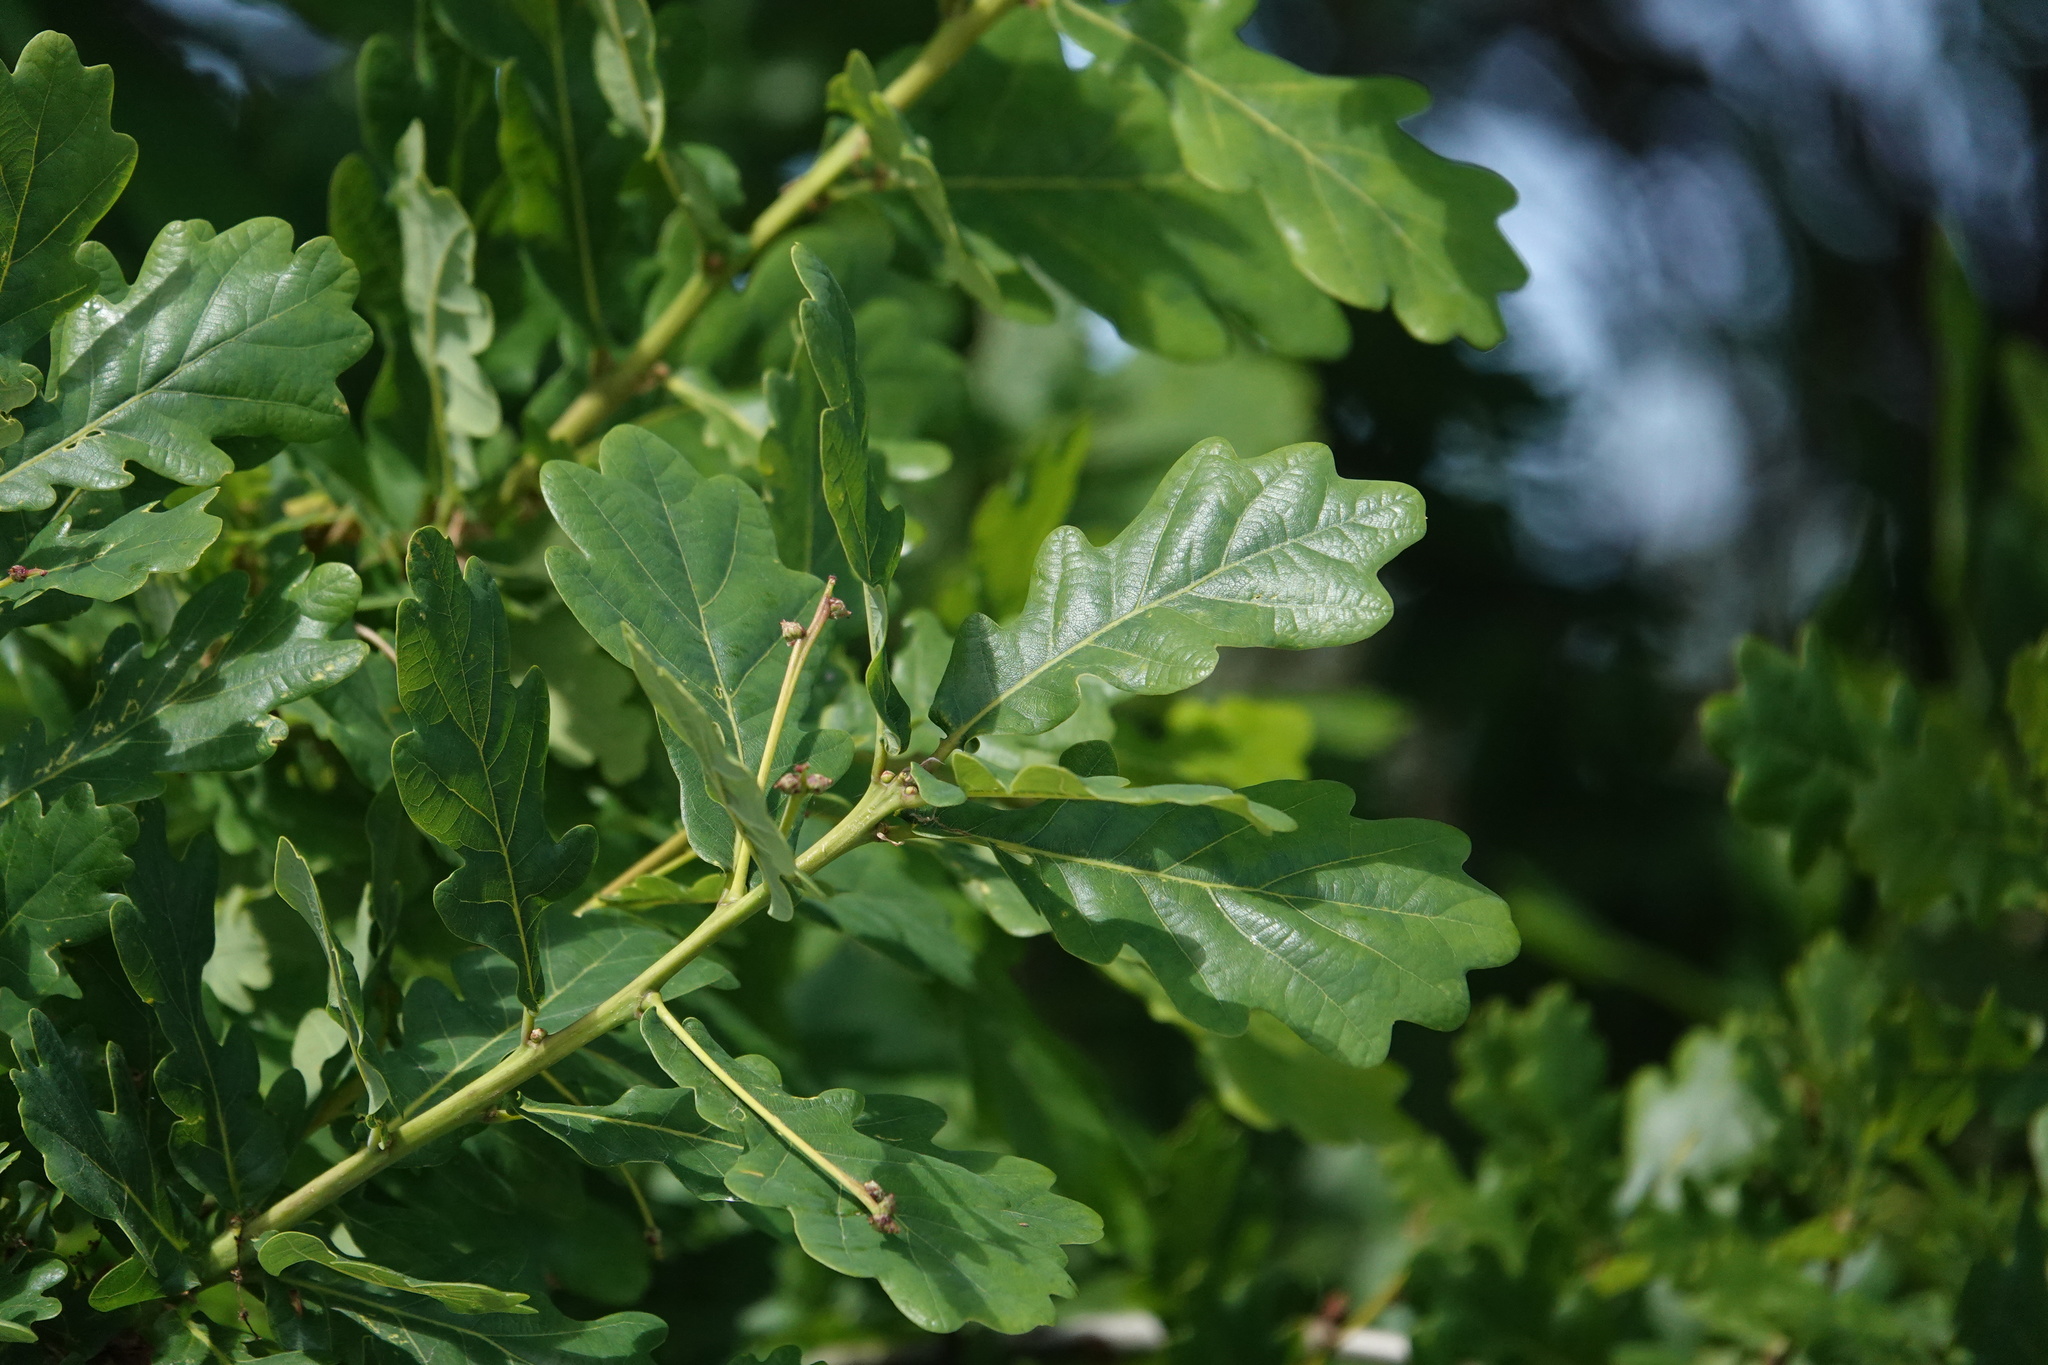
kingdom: Plantae
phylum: Tracheophyta
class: Magnoliopsida
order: Fagales
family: Fagaceae
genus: Quercus
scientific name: Quercus robur
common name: Pedunculate oak
